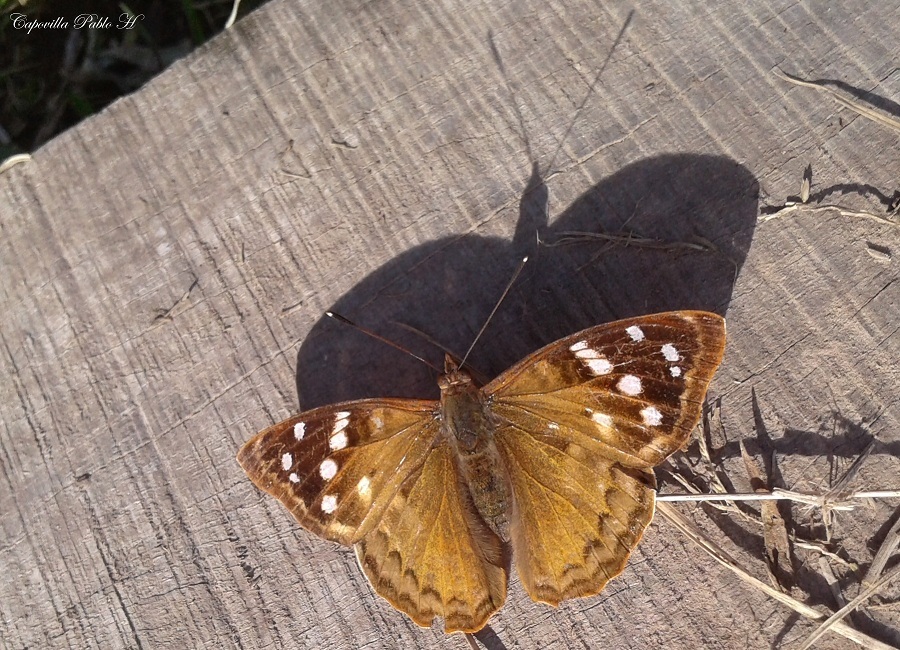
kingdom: Animalia
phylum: Arthropoda
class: Insecta
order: Lepidoptera
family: Nymphalidae
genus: Doxocopa
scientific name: Doxocopa kallina
